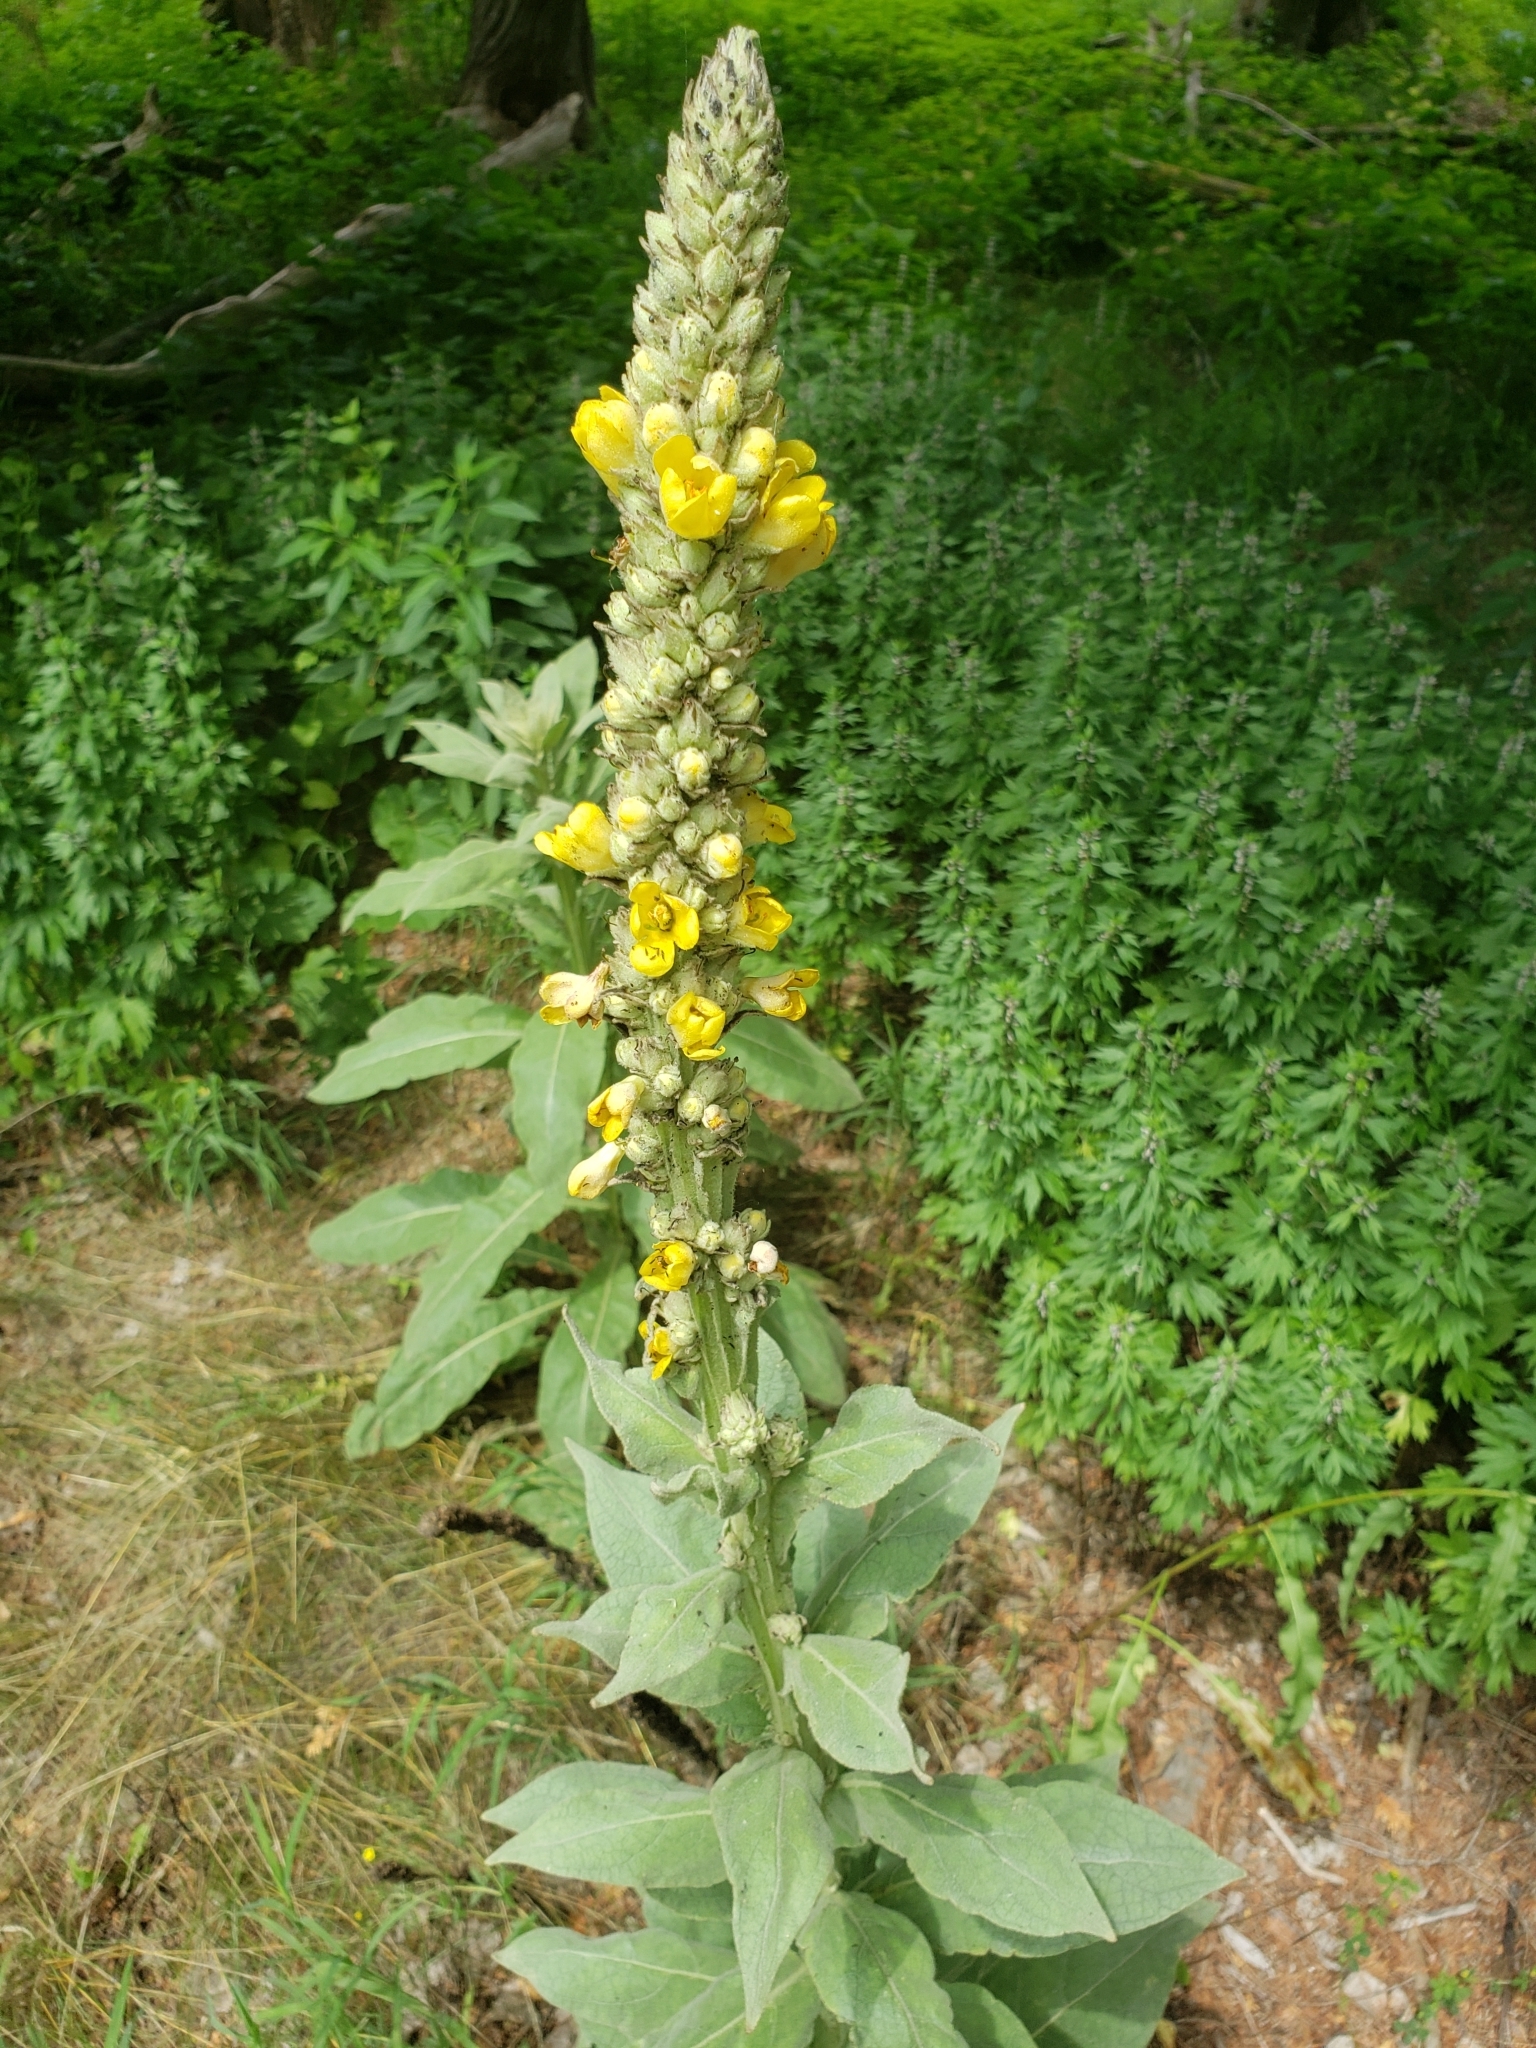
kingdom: Plantae
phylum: Tracheophyta
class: Magnoliopsida
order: Lamiales
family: Scrophulariaceae
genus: Verbascum
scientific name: Verbascum thapsus
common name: Common mullein
